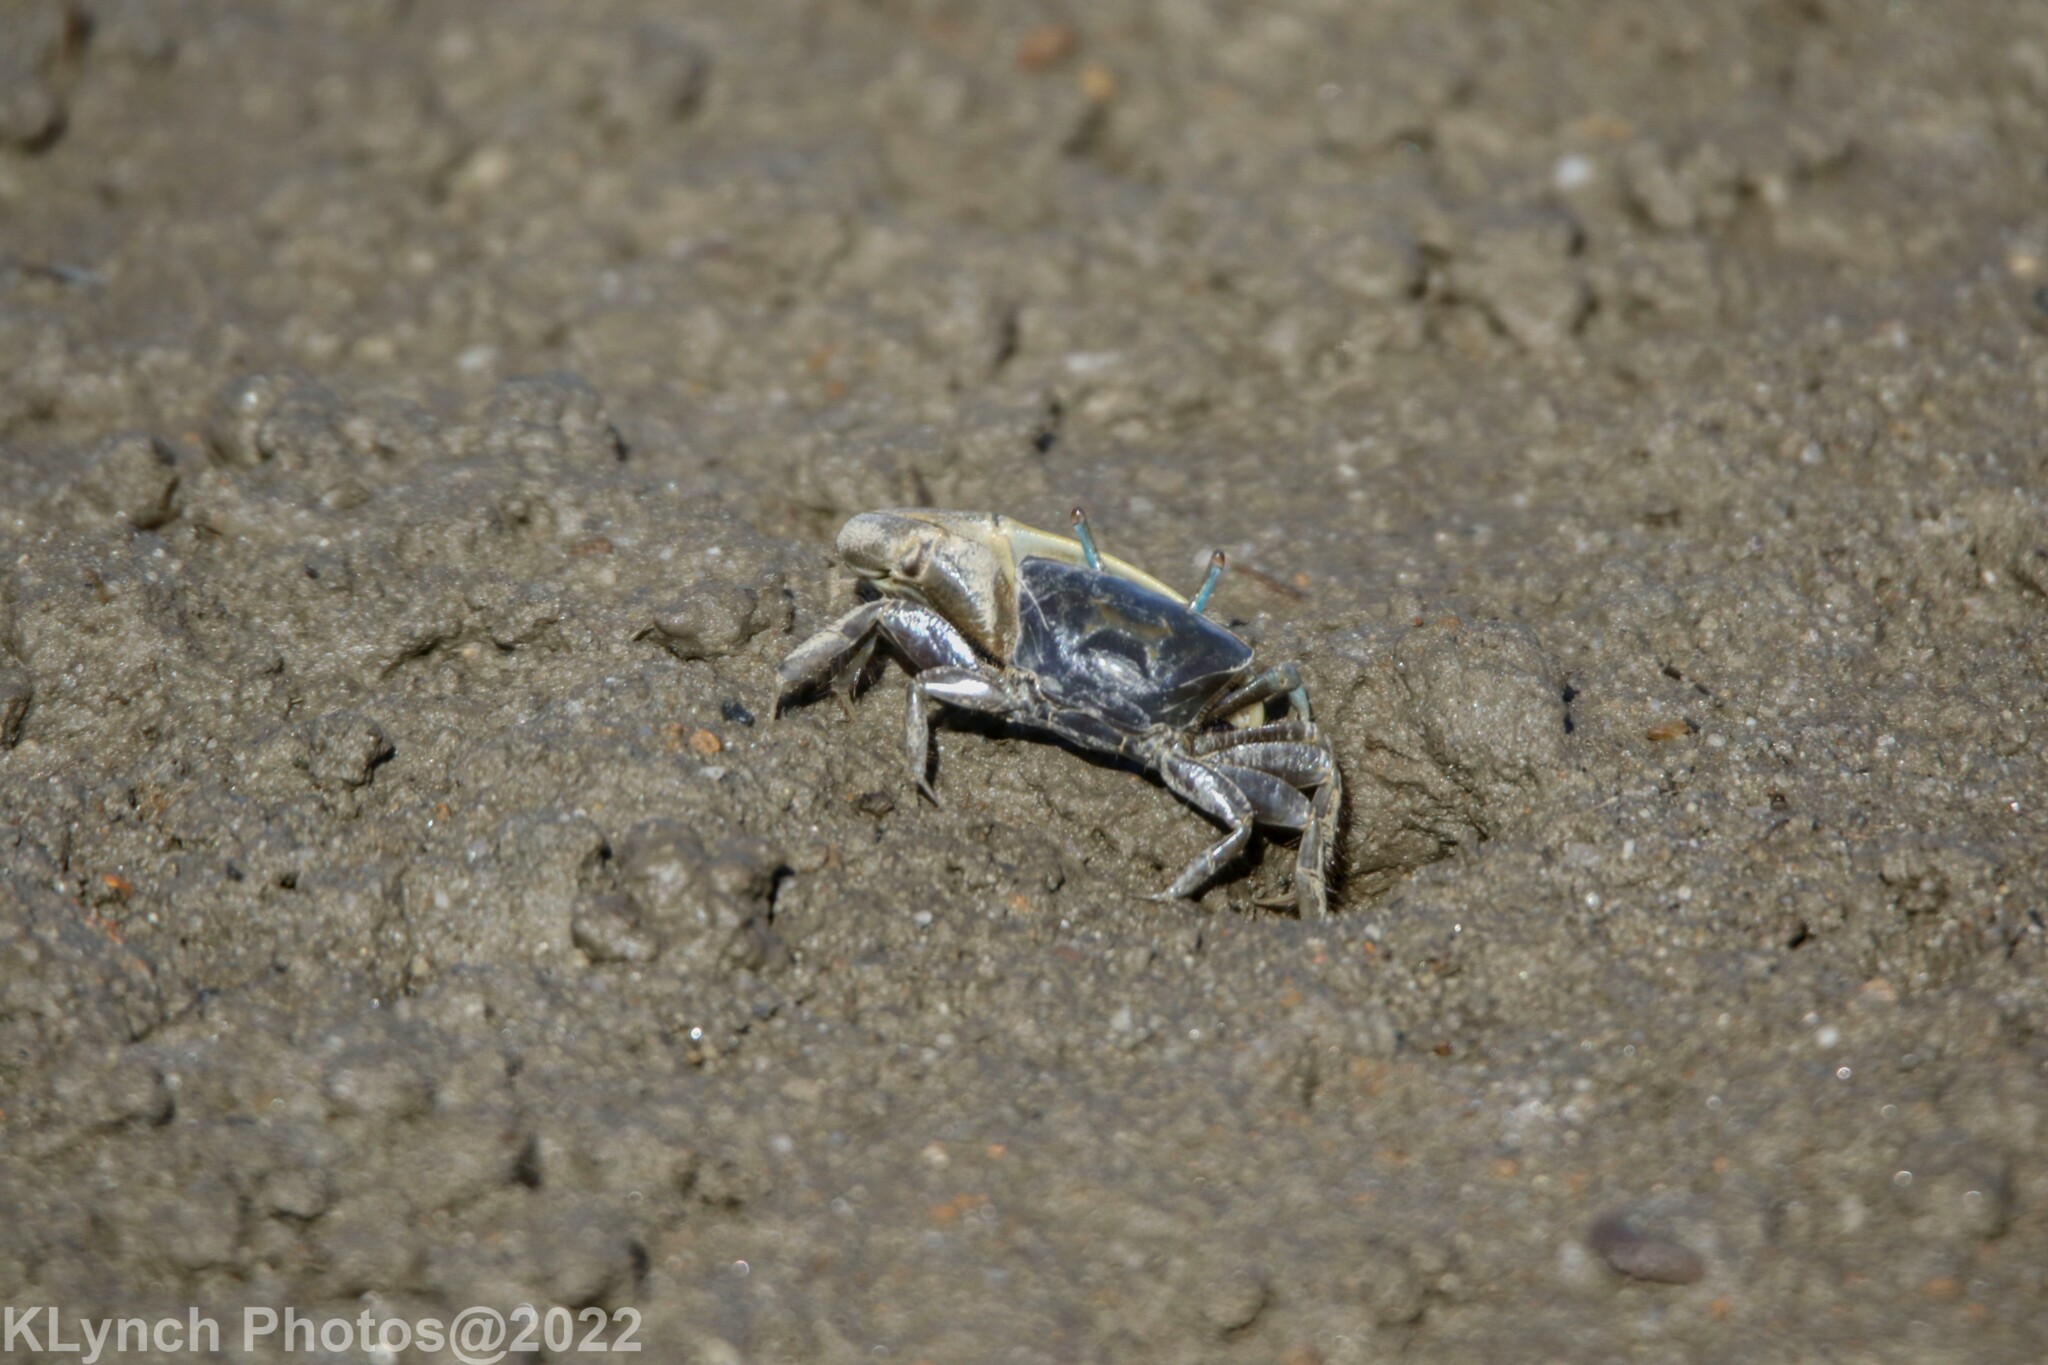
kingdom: Animalia
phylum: Arthropoda
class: Malacostraca
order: Decapoda
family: Ocypodidae
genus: Minuca
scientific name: Minuca pugnax
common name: Mud fiddler crab
